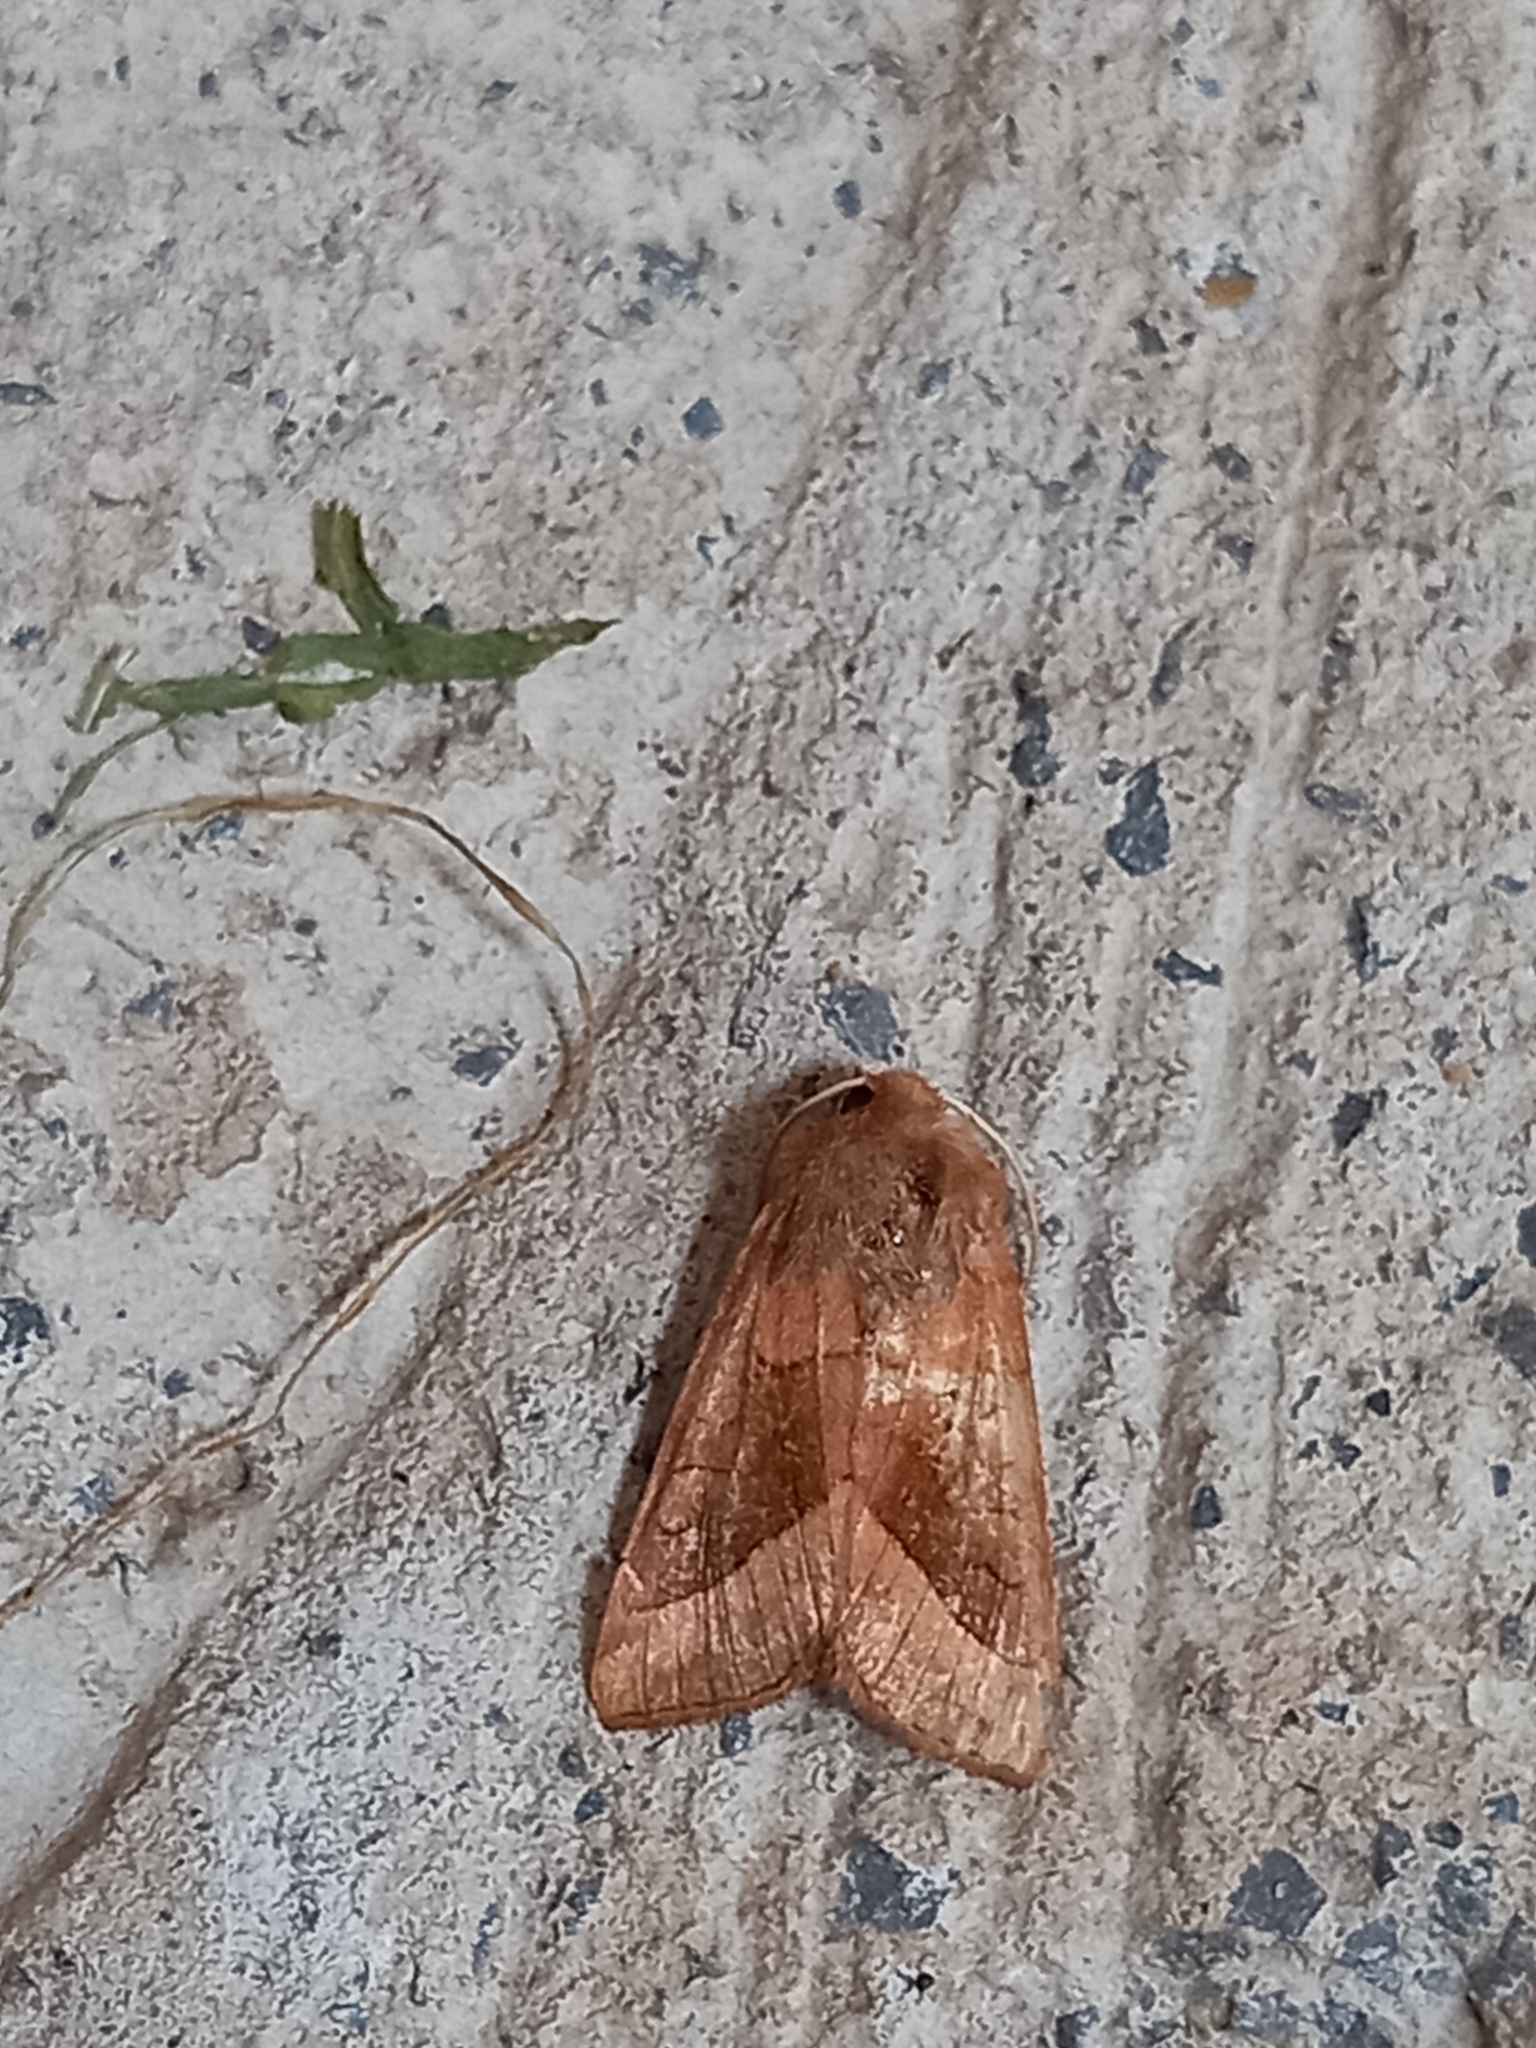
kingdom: Animalia
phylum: Arthropoda
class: Insecta
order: Lepidoptera
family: Noctuidae
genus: Hydraecia
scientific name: Hydraecia micacea
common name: Rosy rustic
